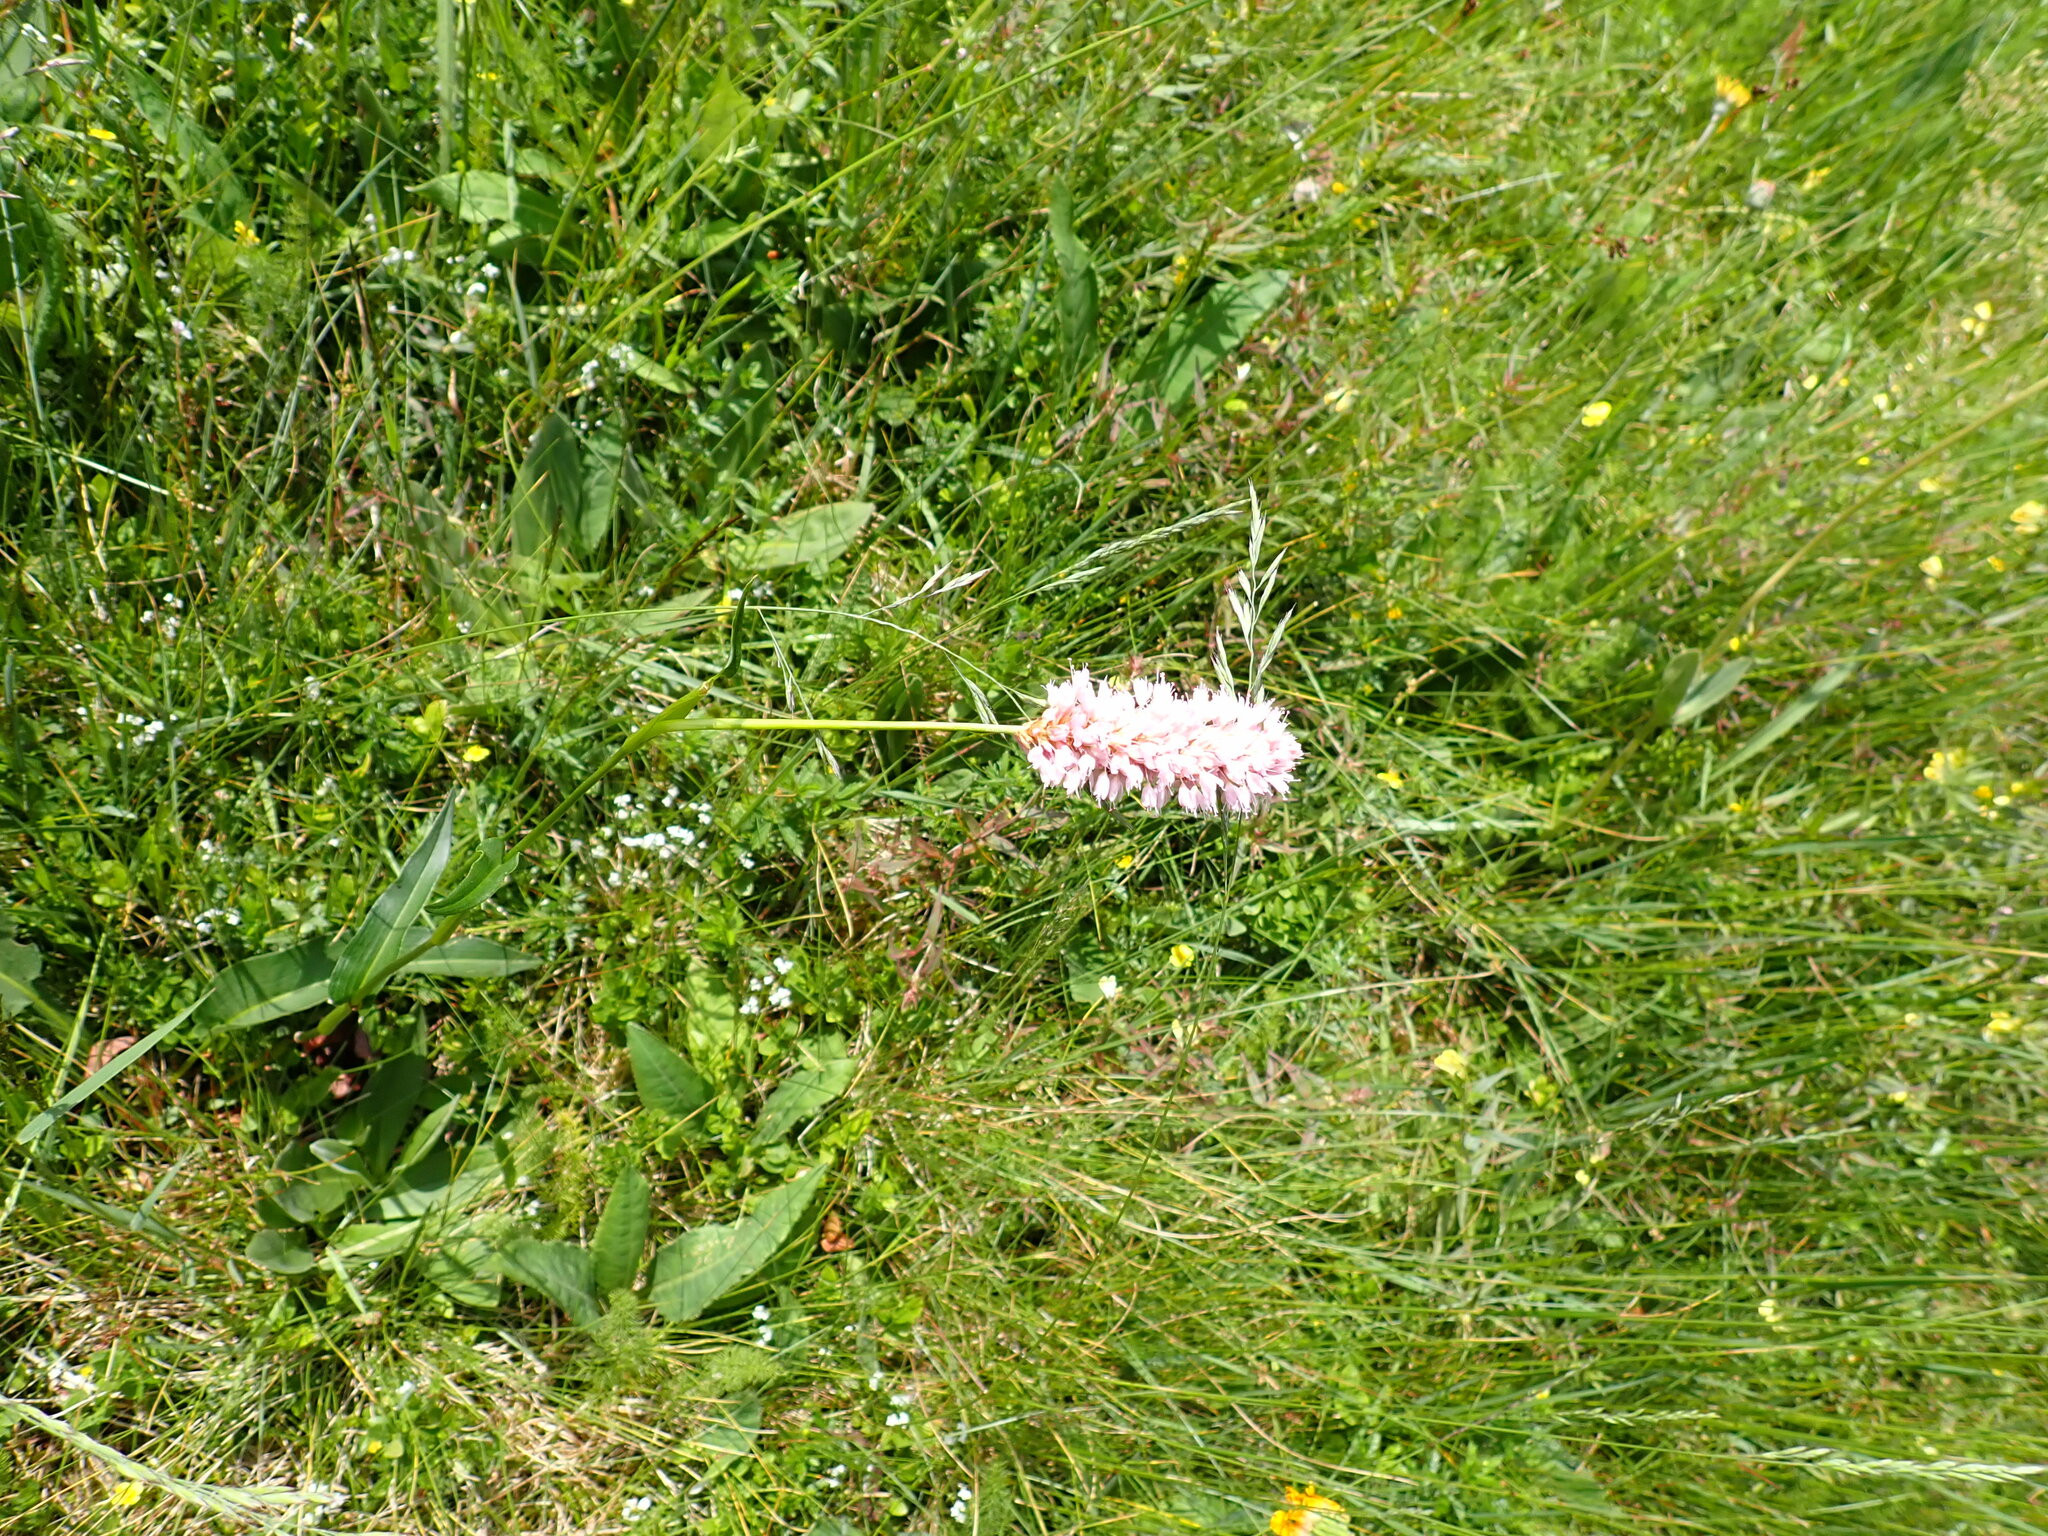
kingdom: Plantae
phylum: Tracheophyta
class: Magnoliopsida
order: Caryophyllales
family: Polygonaceae
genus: Bistorta
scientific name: Bistorta officinalis
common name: Common bistort
